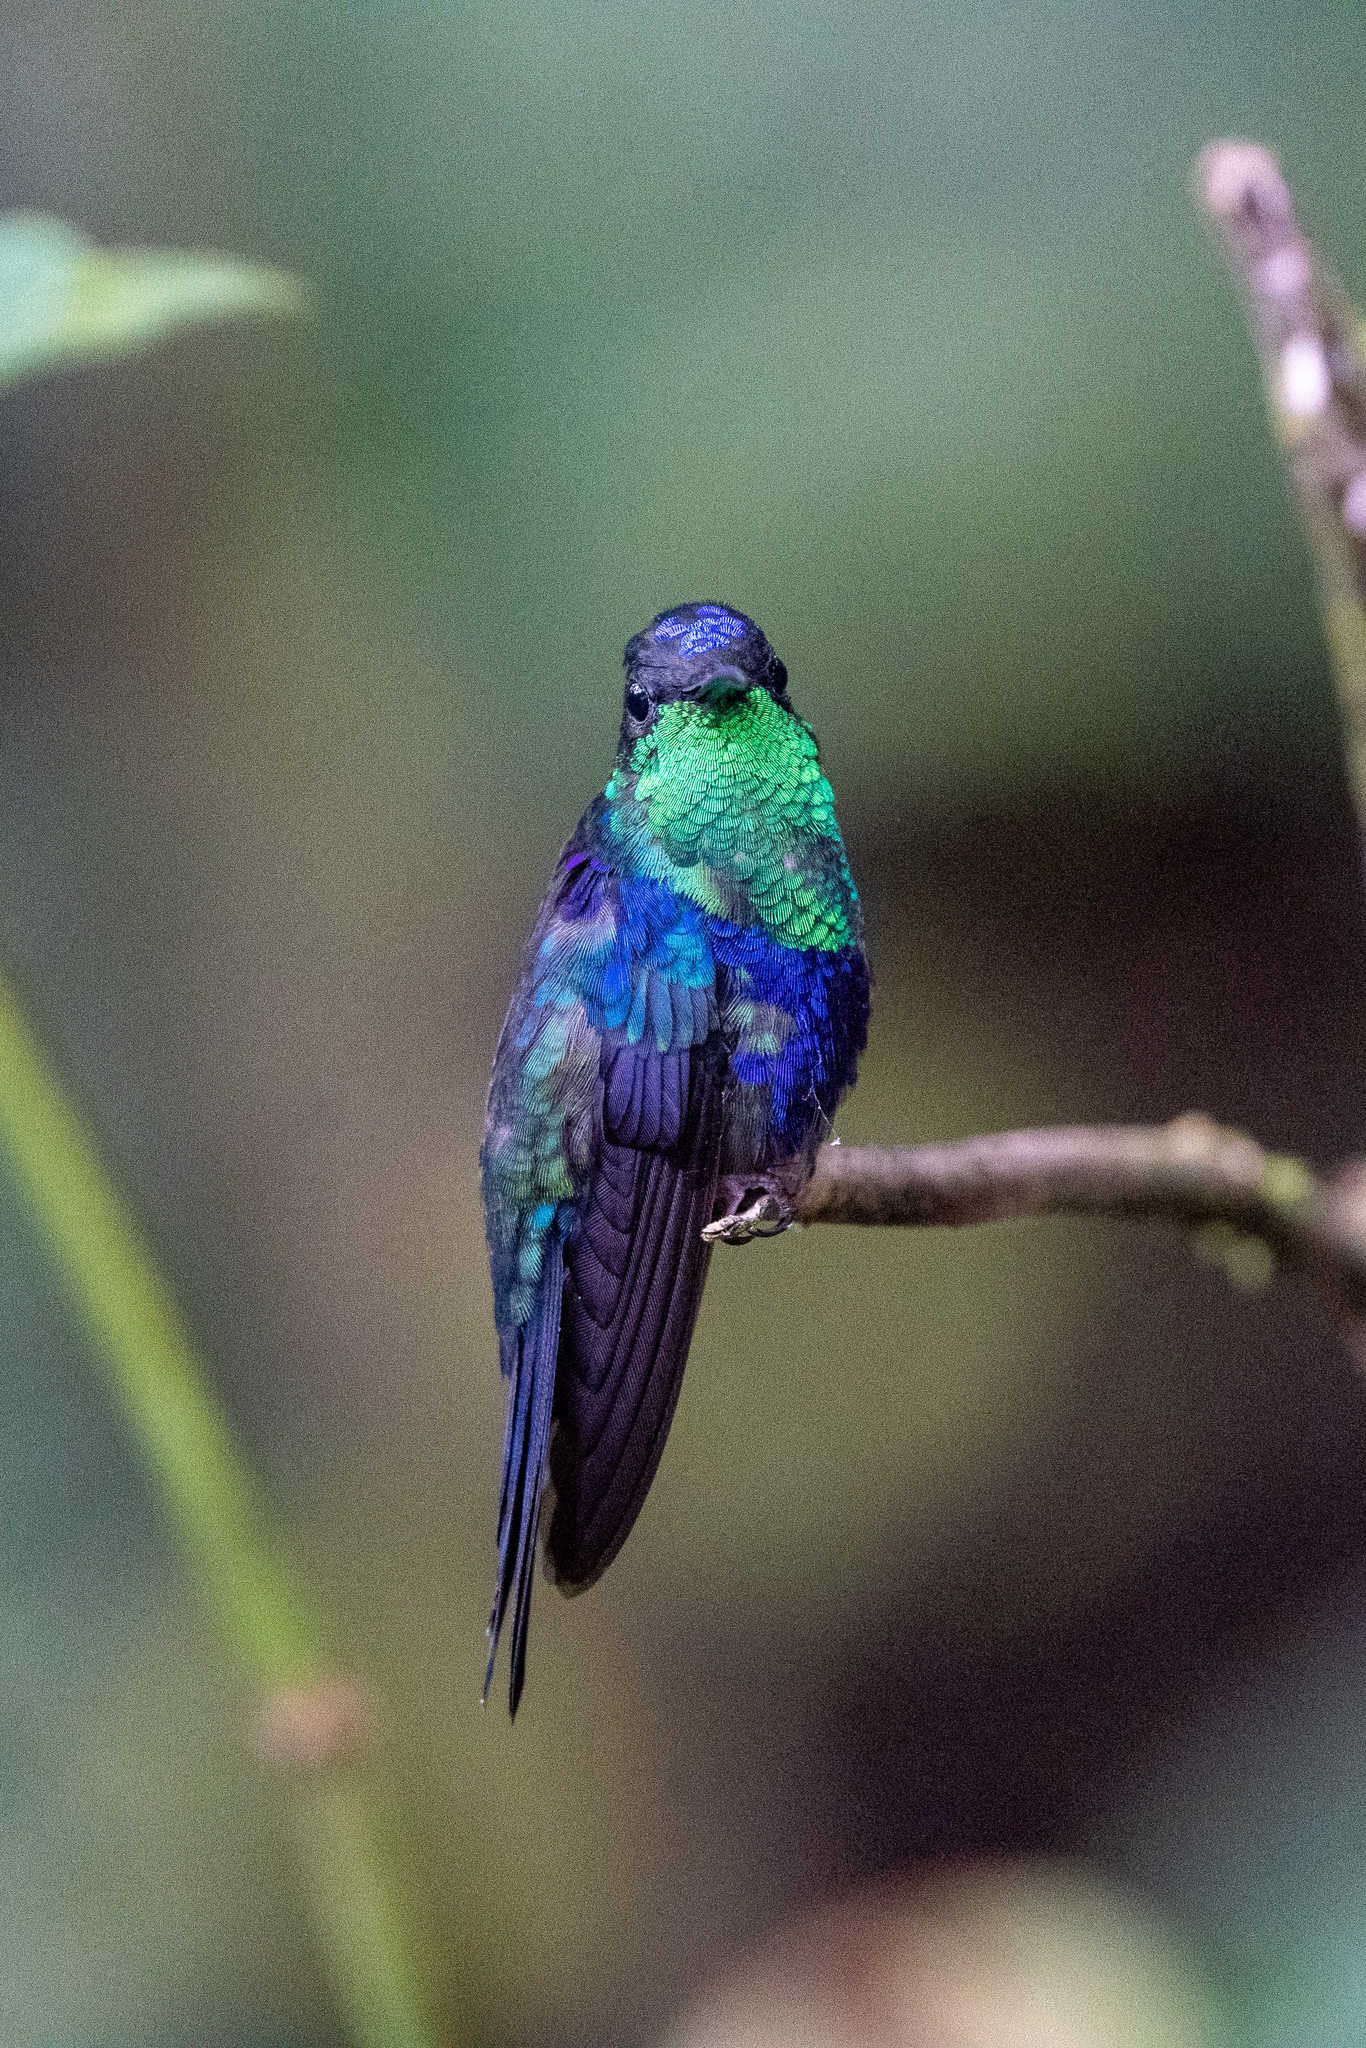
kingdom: Animalia
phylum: Chordata
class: Aves
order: Apodiformes
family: Trochilidae
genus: Thalurania
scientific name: Thalurania colombica
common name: Crowned woodnymph
